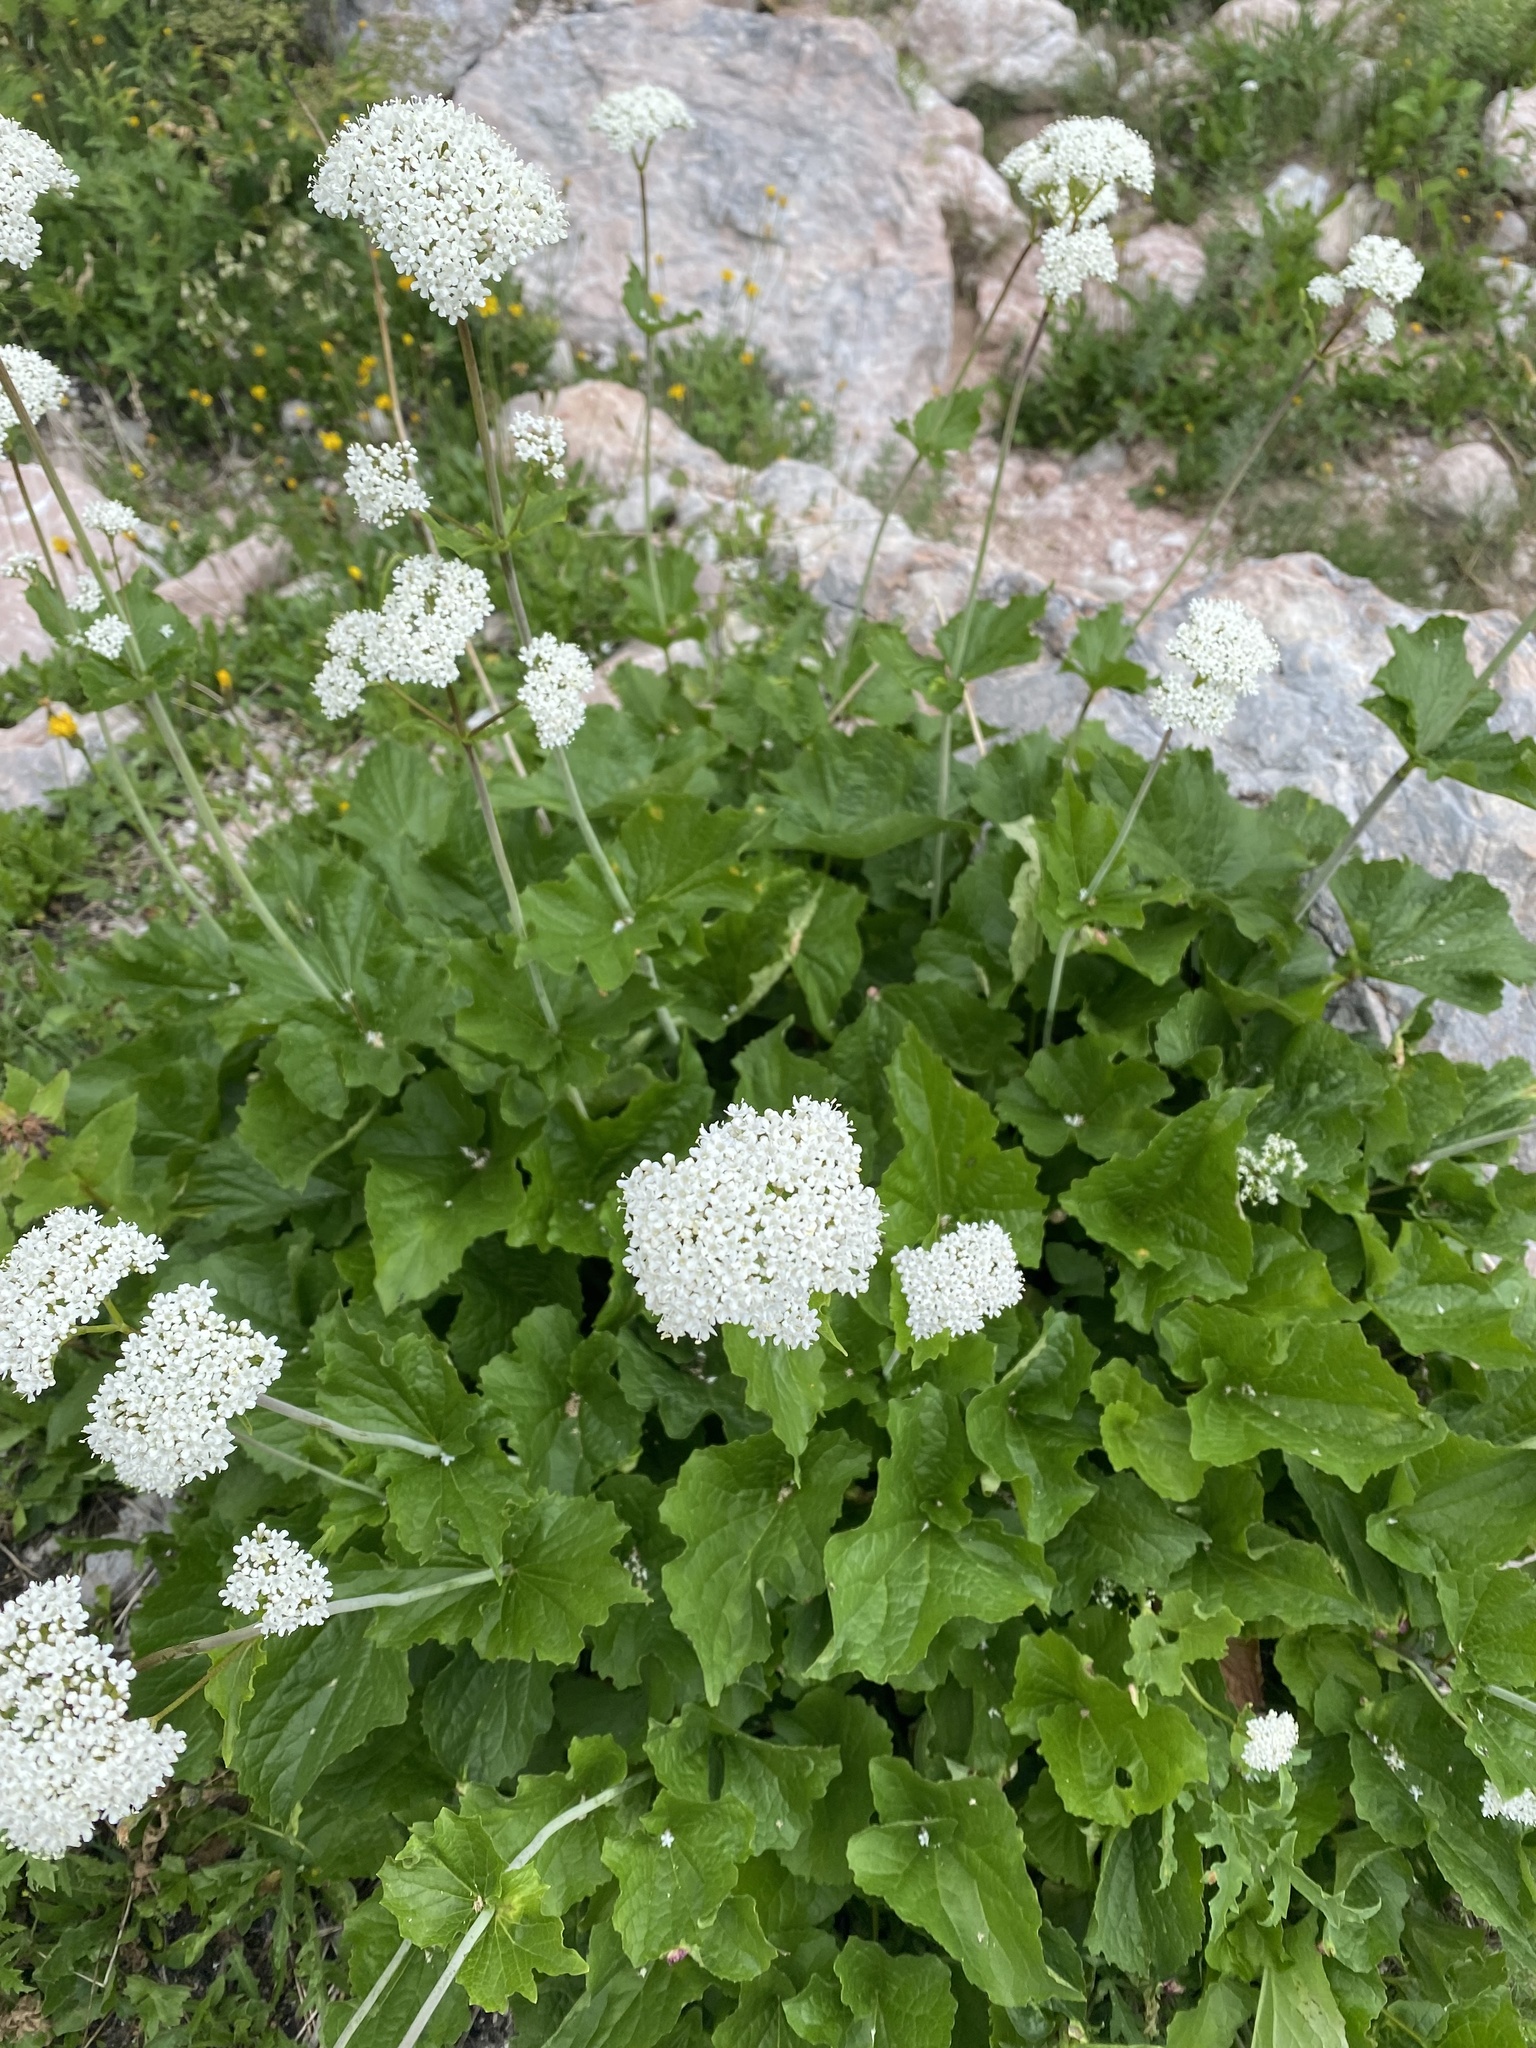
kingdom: Plantae
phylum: Tracheophyta
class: Magnoliopsida
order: Dipsacales
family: Caprifoliaceae
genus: Valeriana
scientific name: Valeriana alliariifolia
